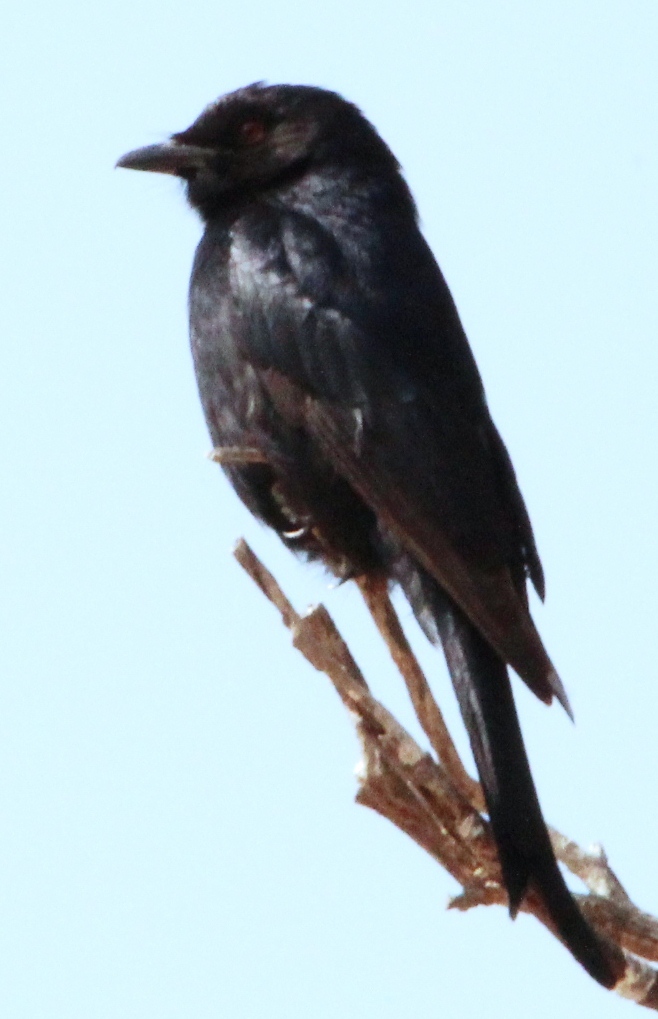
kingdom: Animalia
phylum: Chordata
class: Aves
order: Passeriformes
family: Dicruridae
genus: Dicrurus
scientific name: Dicrurus adsimilis
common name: Fork-tailed drongo
